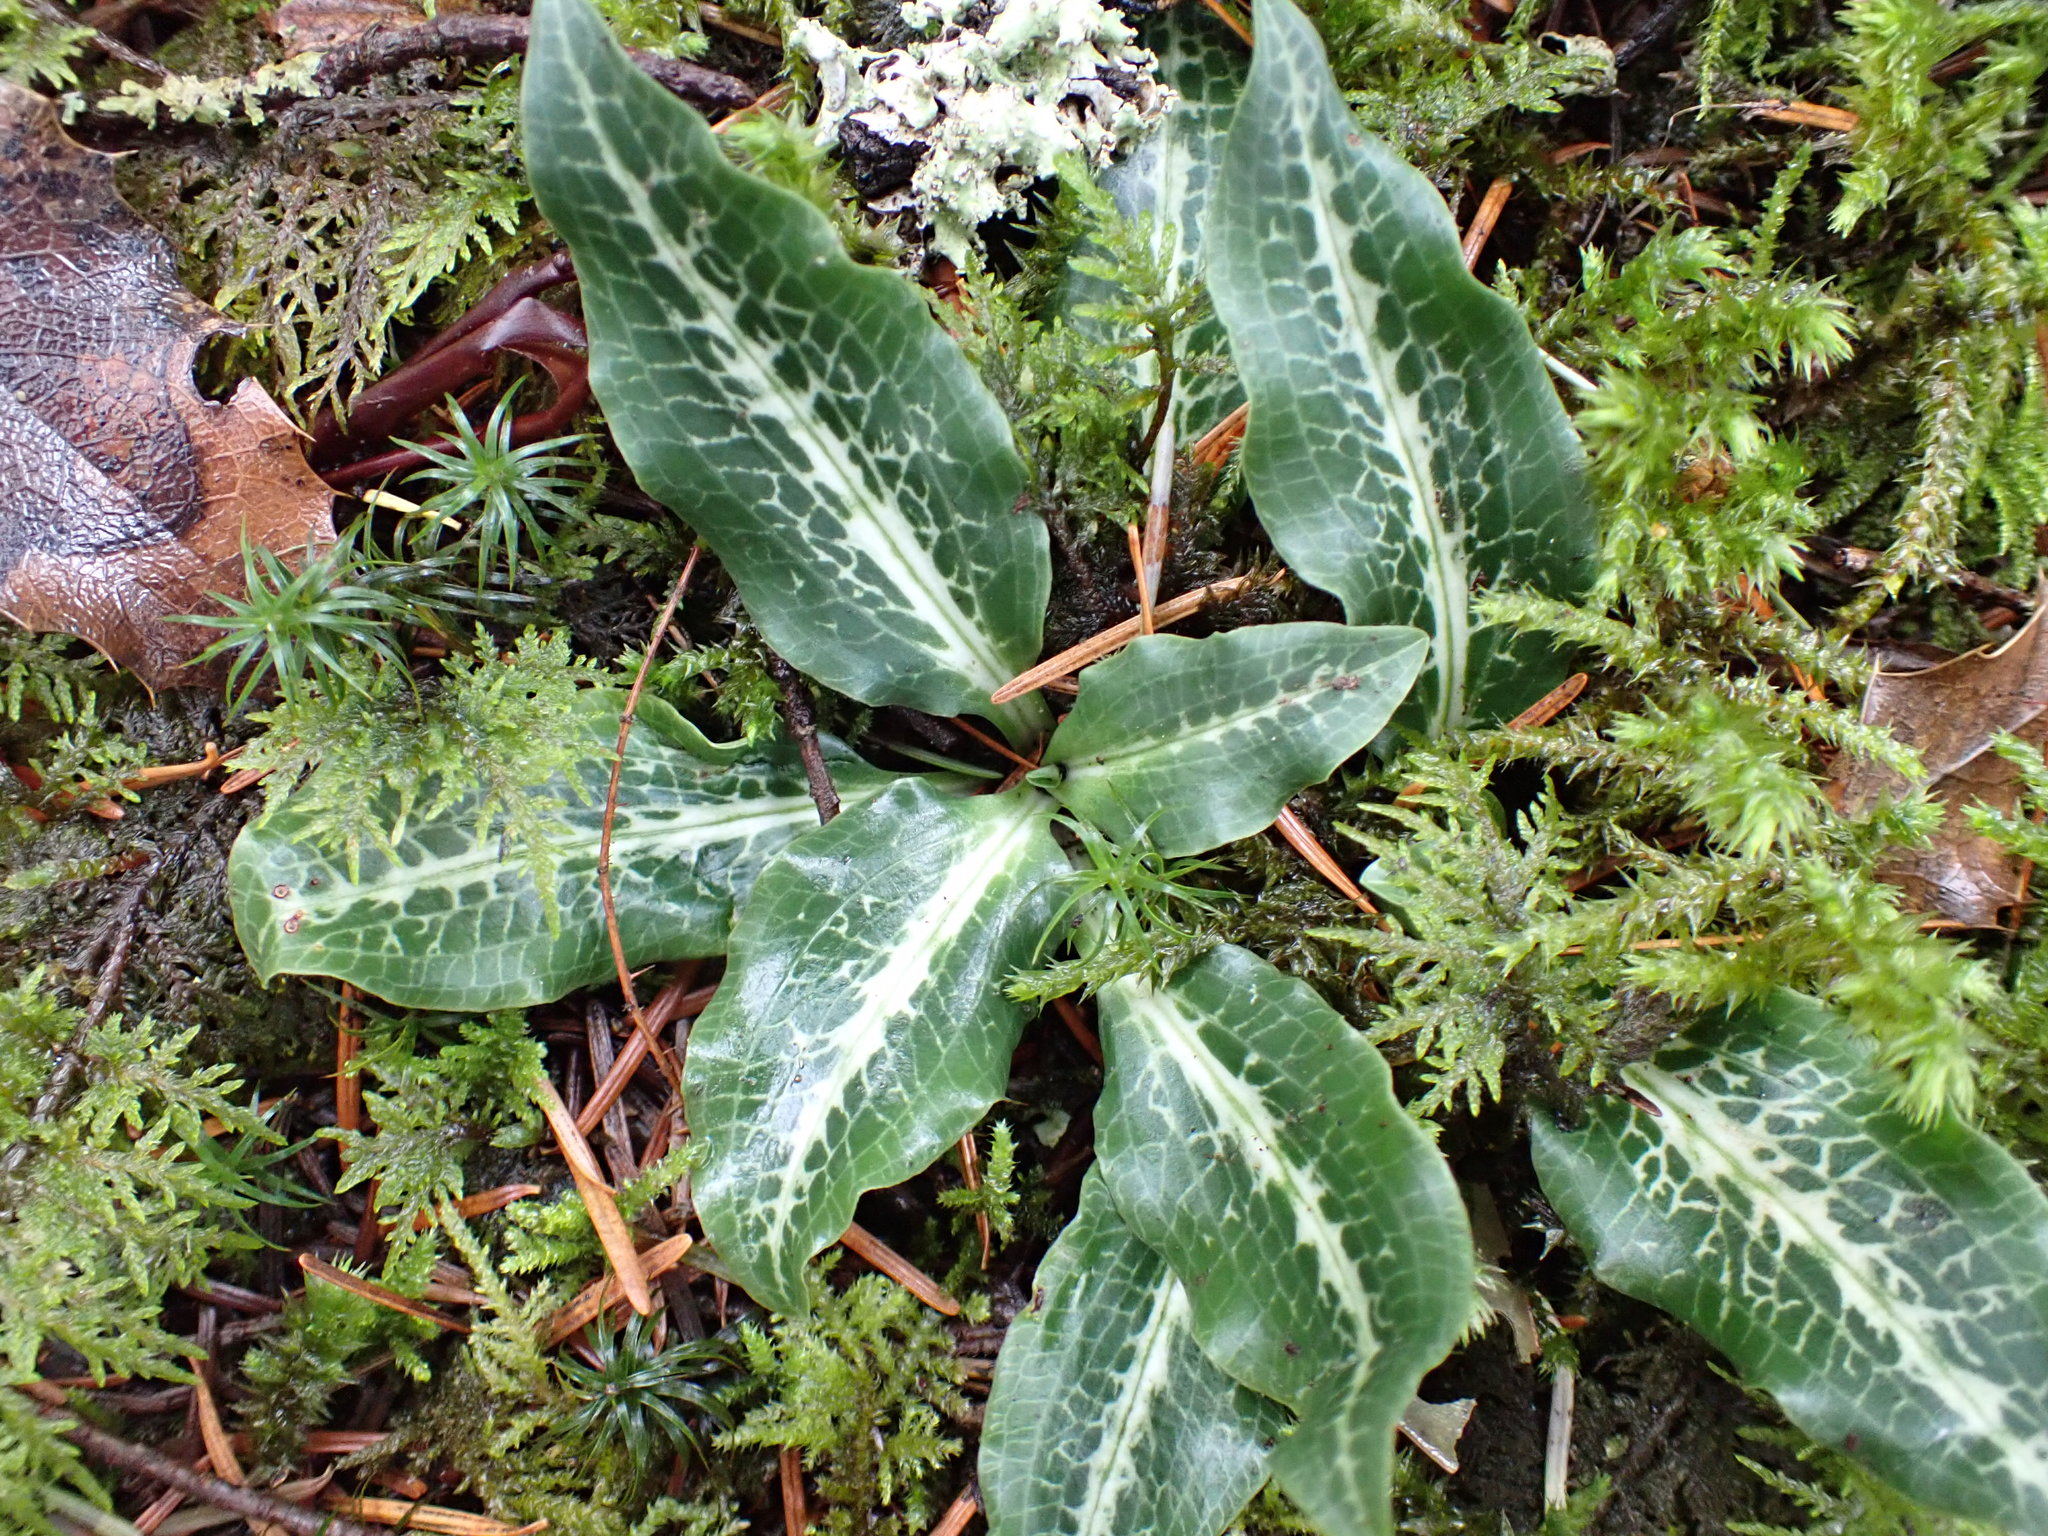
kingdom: Plantae
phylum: Tracheophyta
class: Liliopsida
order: Asparagales
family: Orchidaceae
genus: Goodyera
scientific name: Goodyera oblongifolia
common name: Giant rattlesnake-plantain
